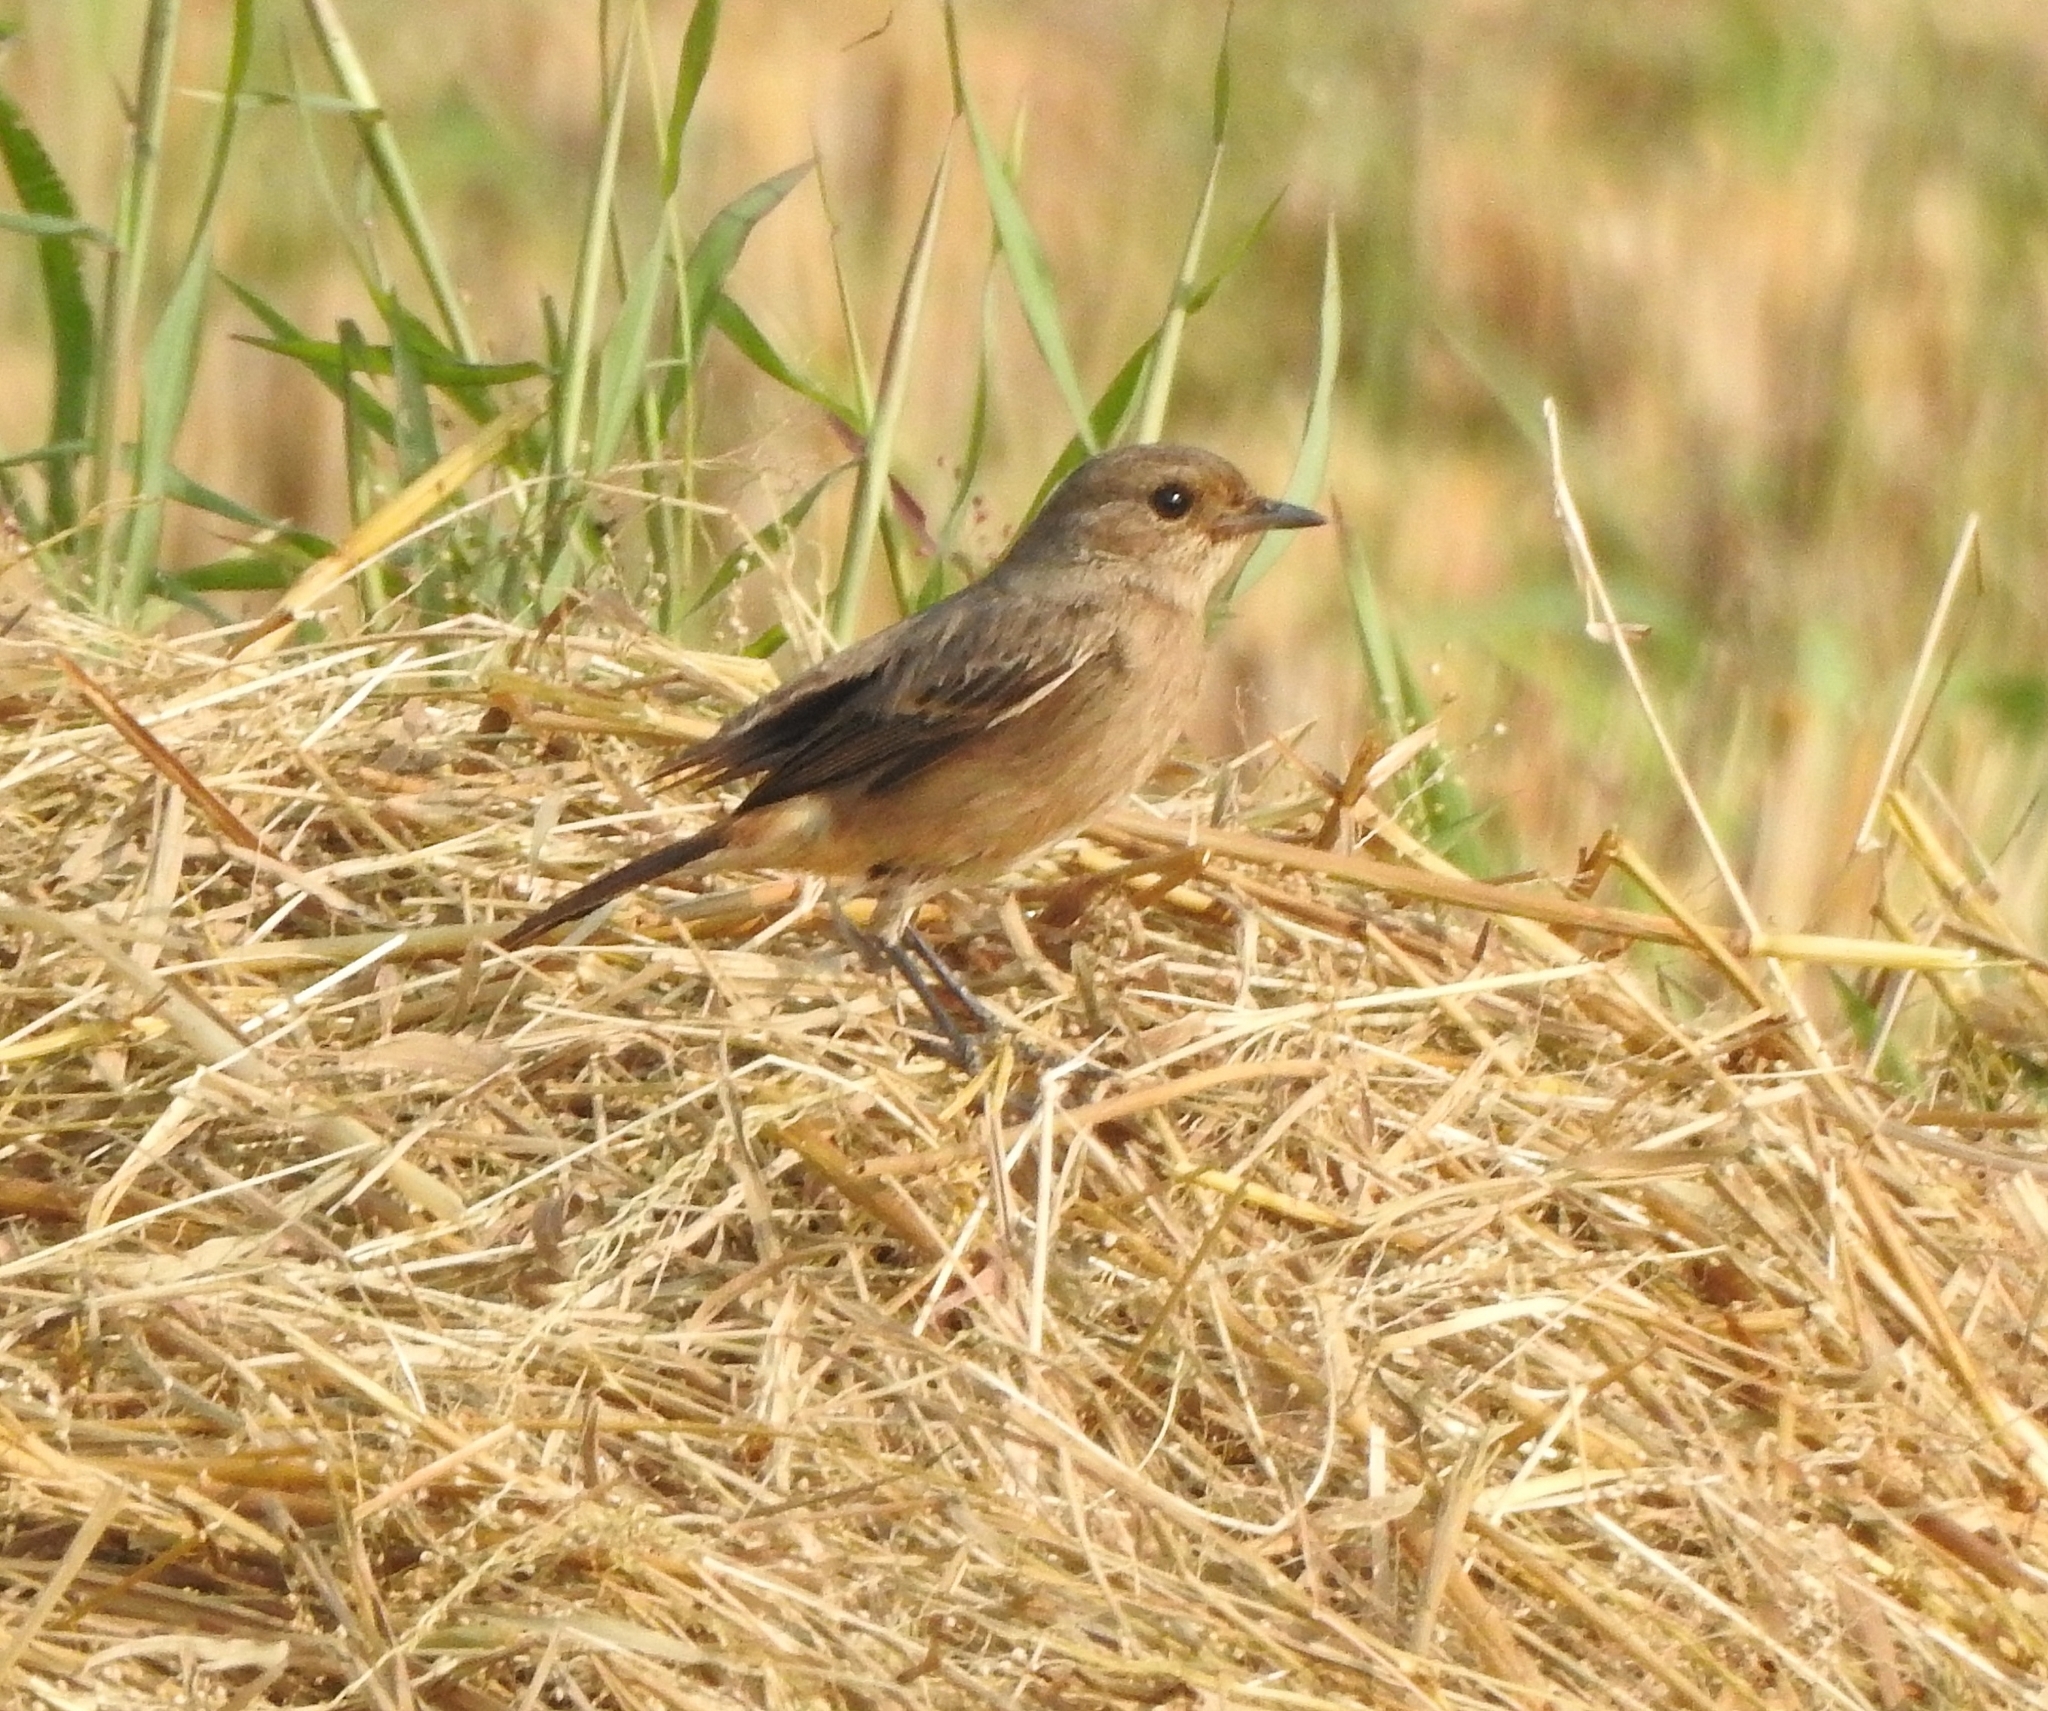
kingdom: Animalia
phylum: Chordata
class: Aves
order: Passeriformes
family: Muscicapidae
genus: Saxicola
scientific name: Saxicola caprata
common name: Pied bush chat
